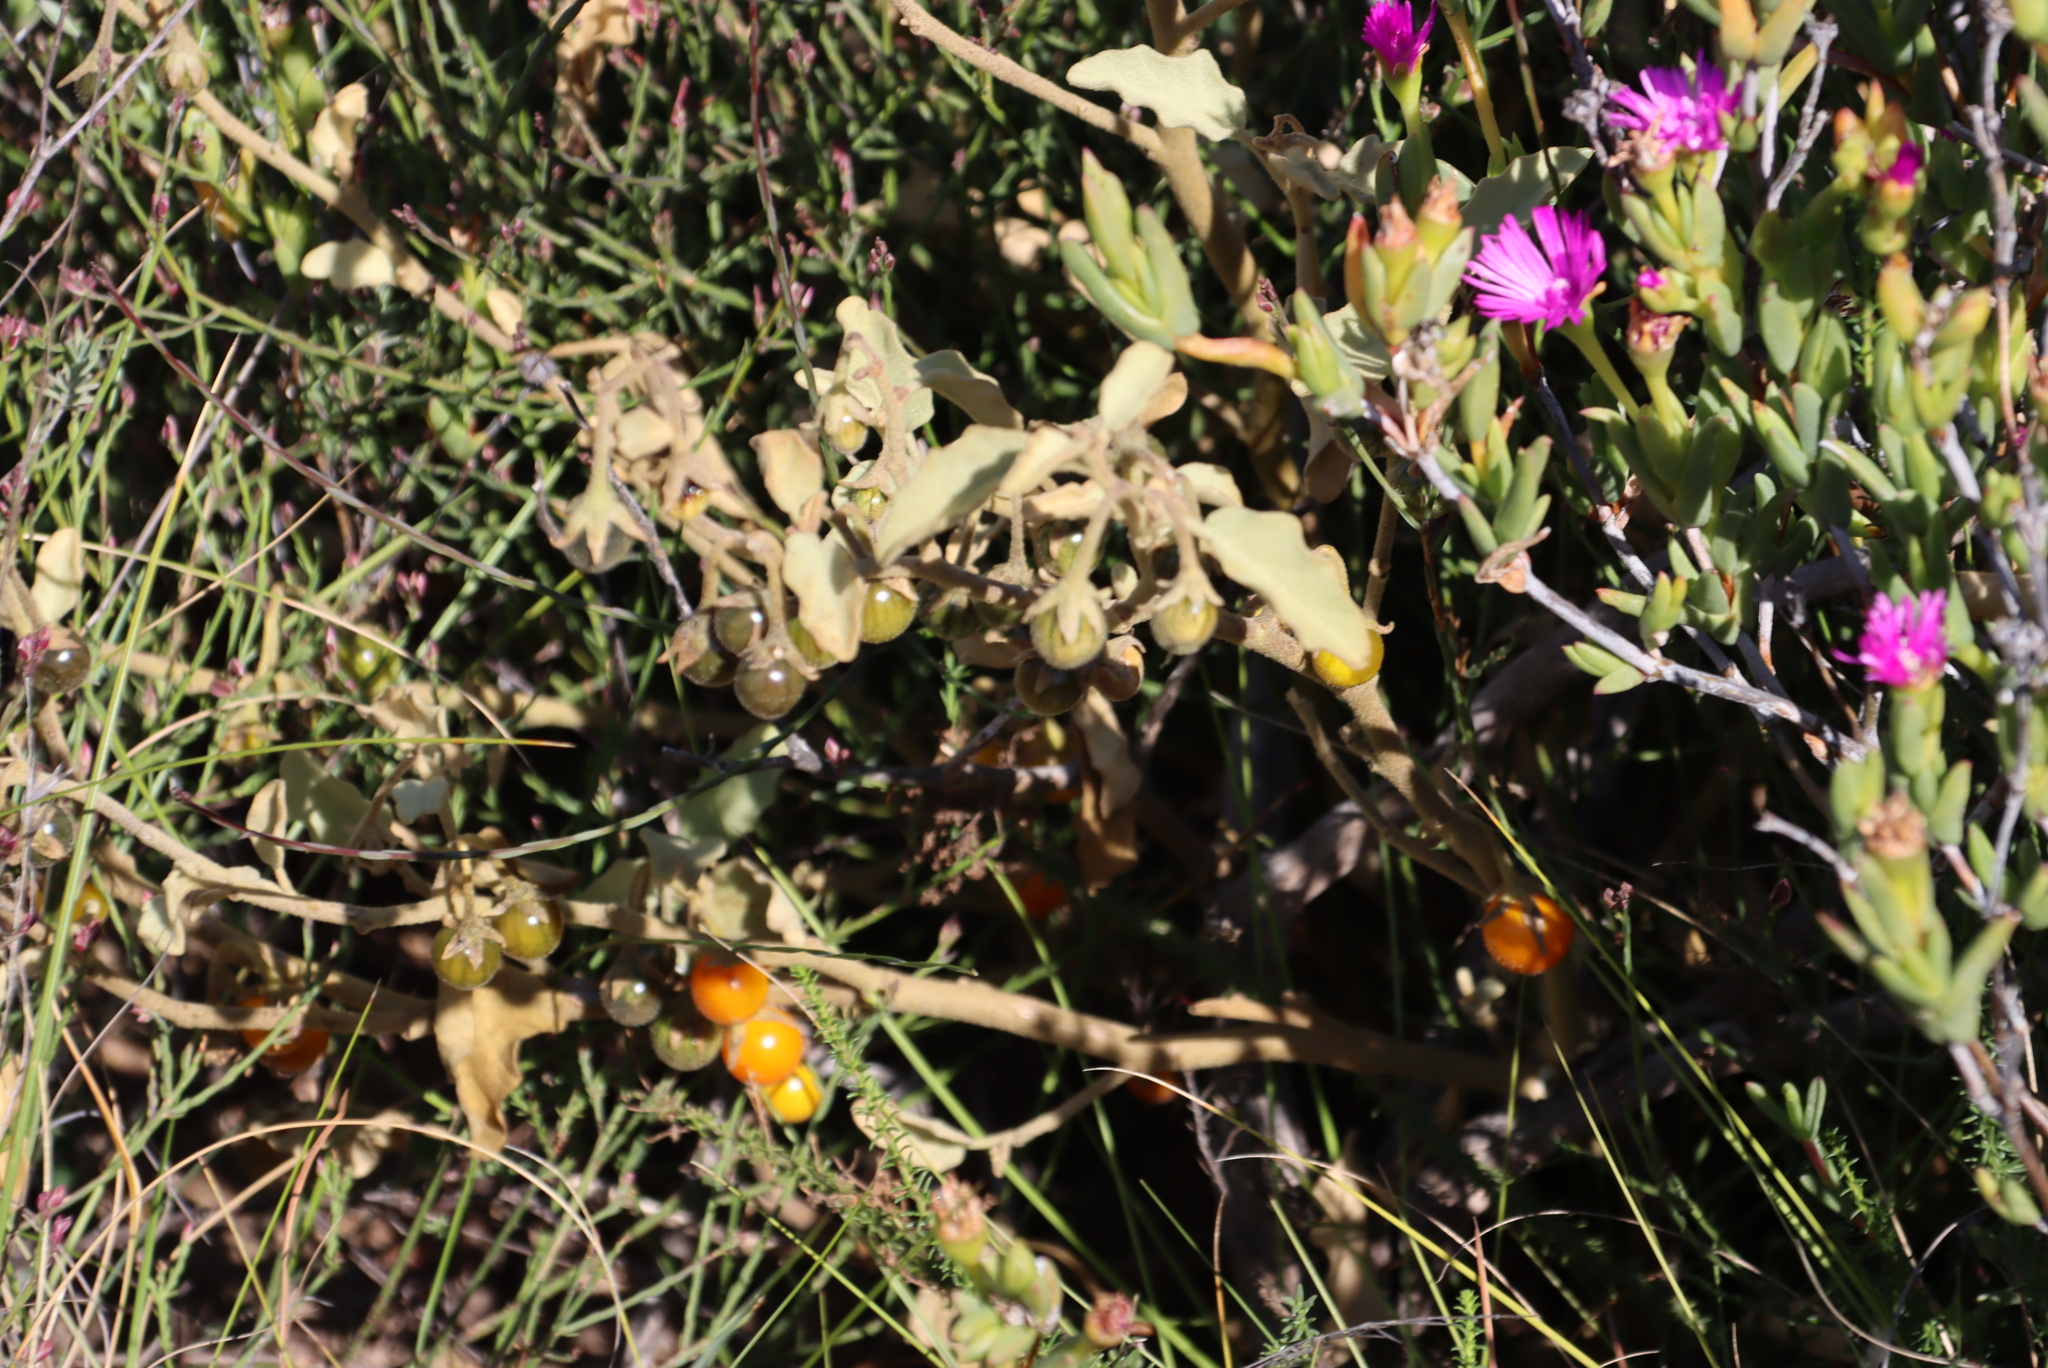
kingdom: Plantae
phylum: Tracheophyta
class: Magnoliopsida
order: Solanales
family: Solanaceae
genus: Solanum
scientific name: Solanum tomentosum
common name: Wild aubergine
